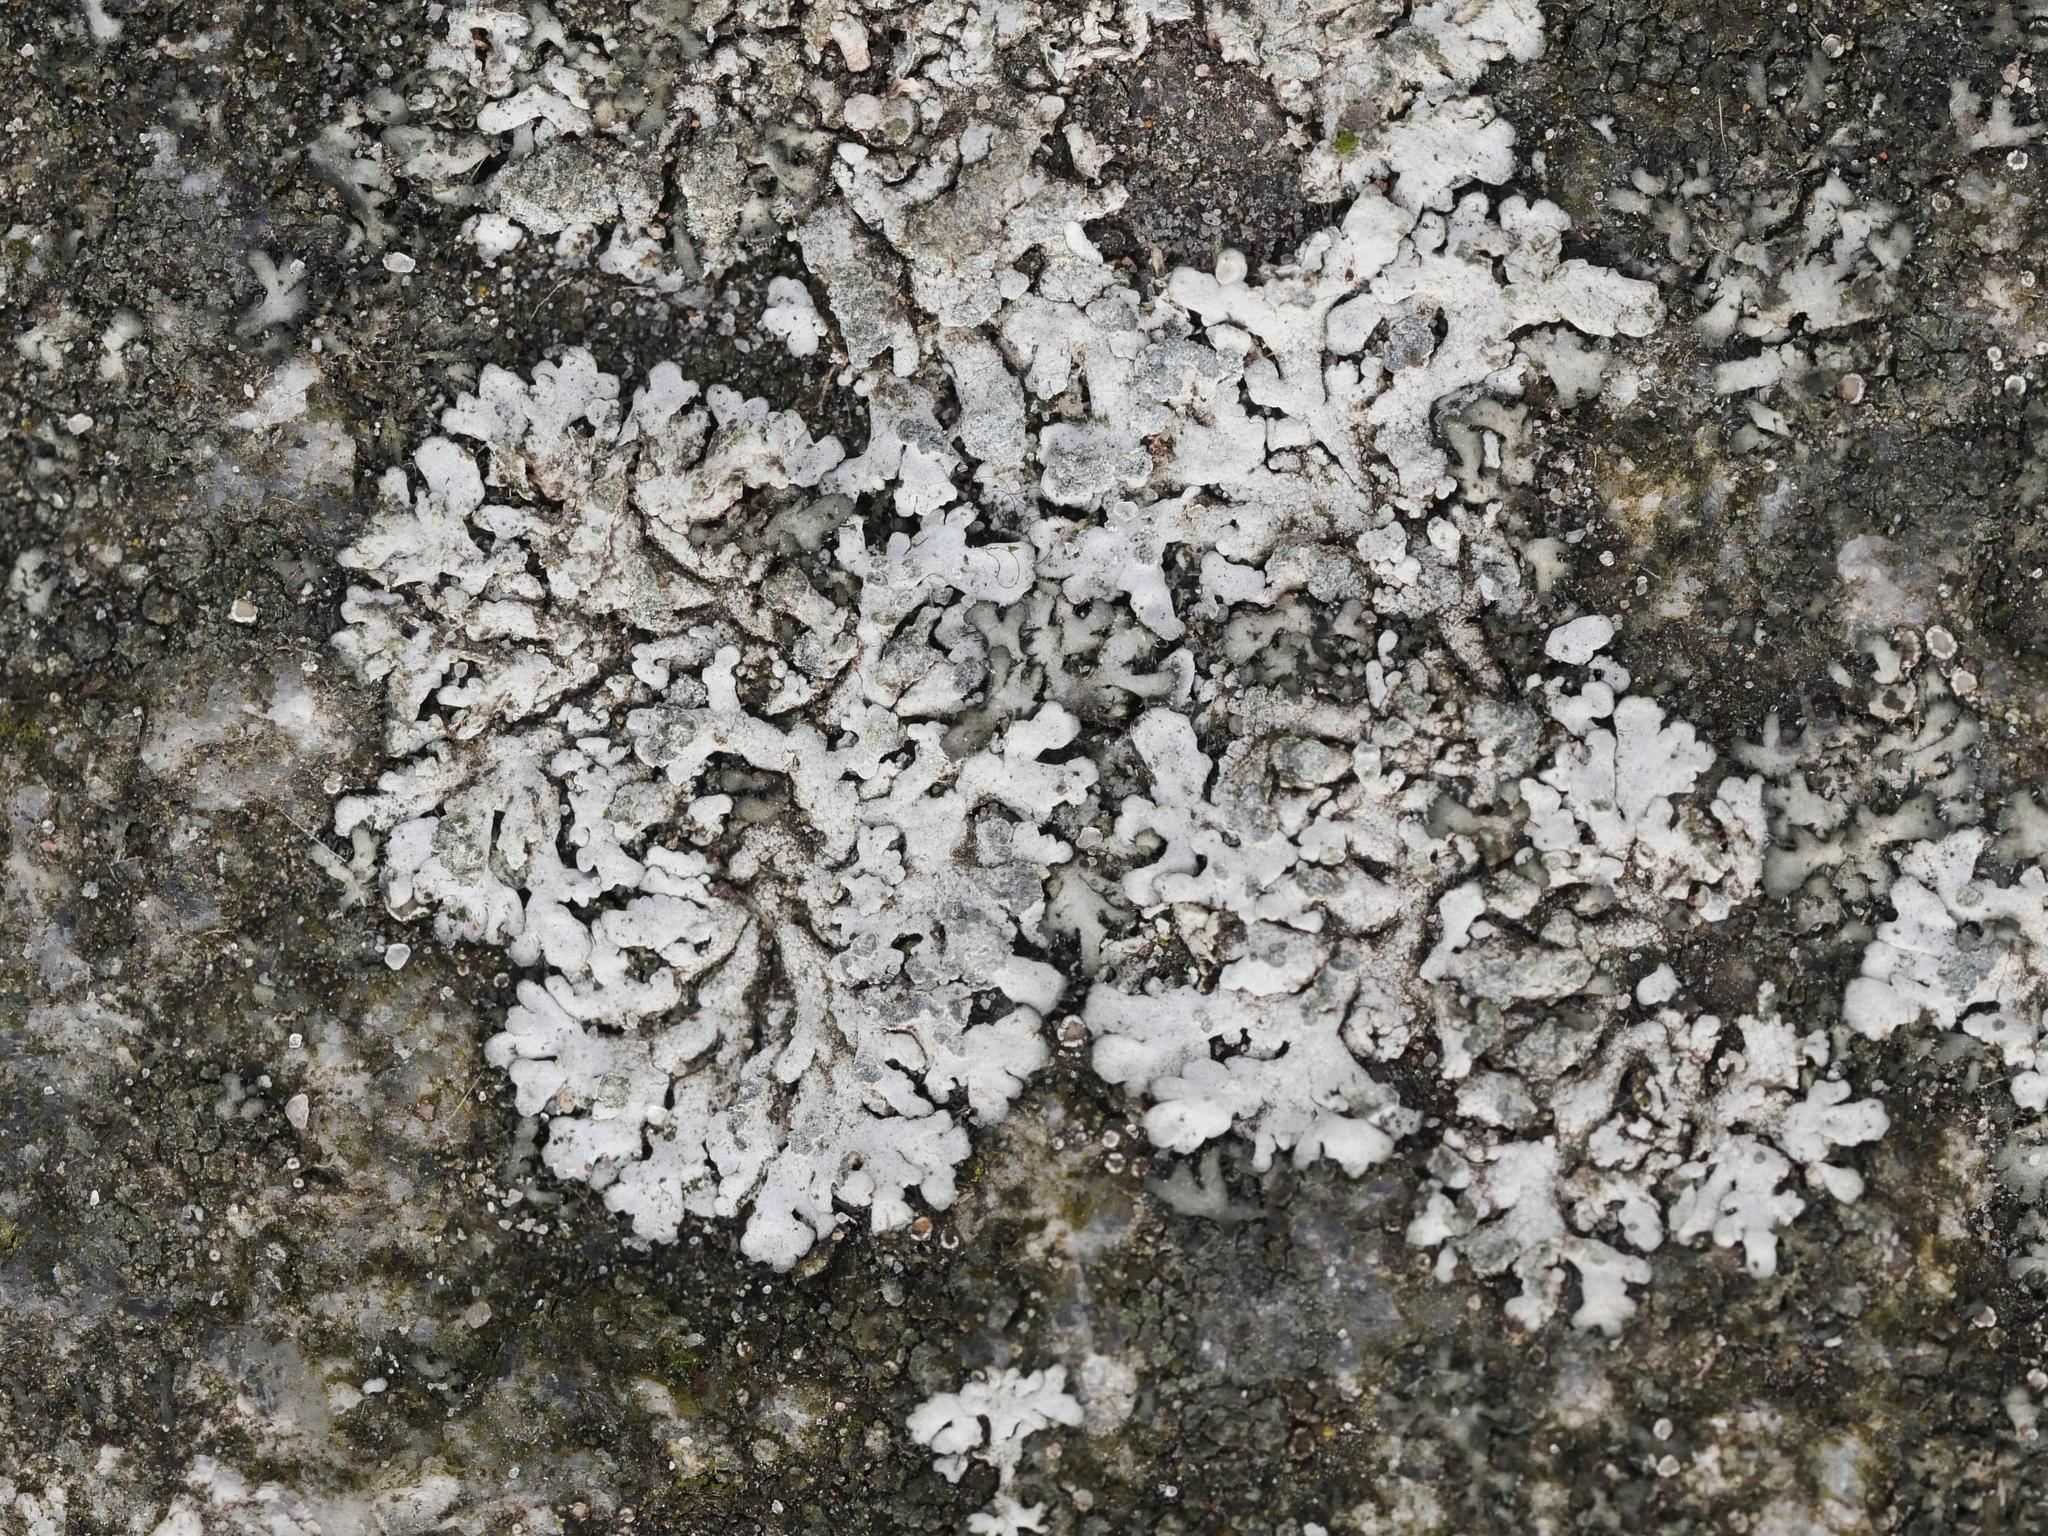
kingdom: Fungi
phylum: Ascomycota
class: Lecanoromycetes
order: Caliciales
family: Physciaceae
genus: Physcia
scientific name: Physcia caesia
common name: Blue-gray rosette lichen
